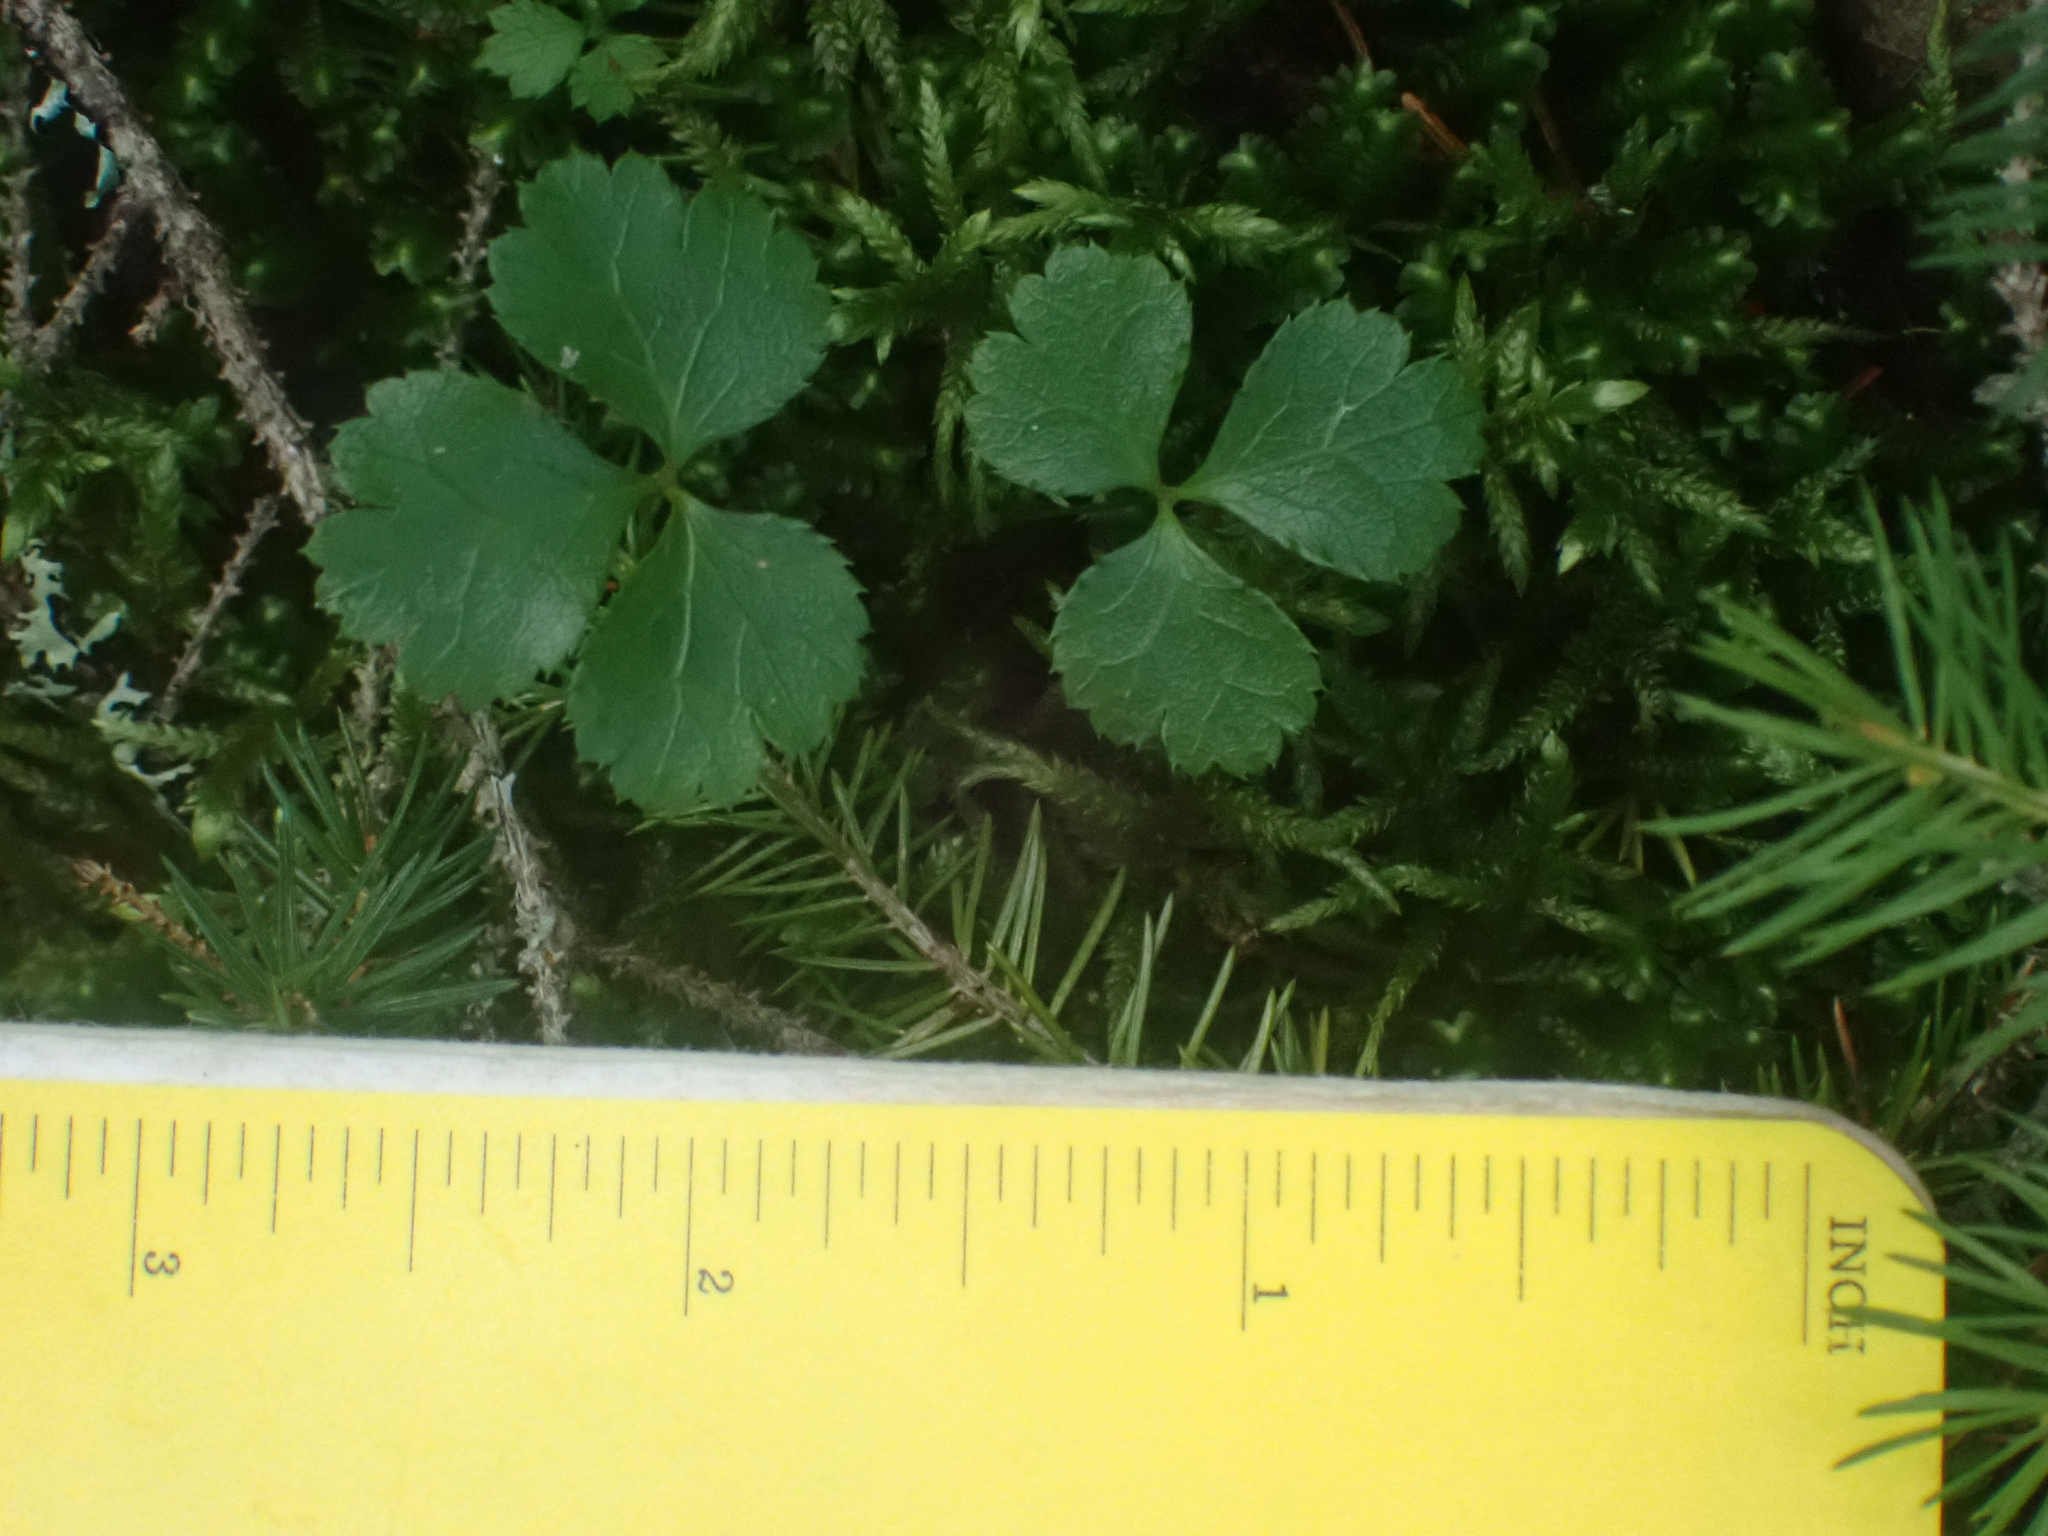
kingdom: Plantae
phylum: Tracheophyta
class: Magnoliopsida
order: Ranunculales
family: Ranunculaceae
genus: Coptis
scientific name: Coptis trifolia
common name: Canker-root
